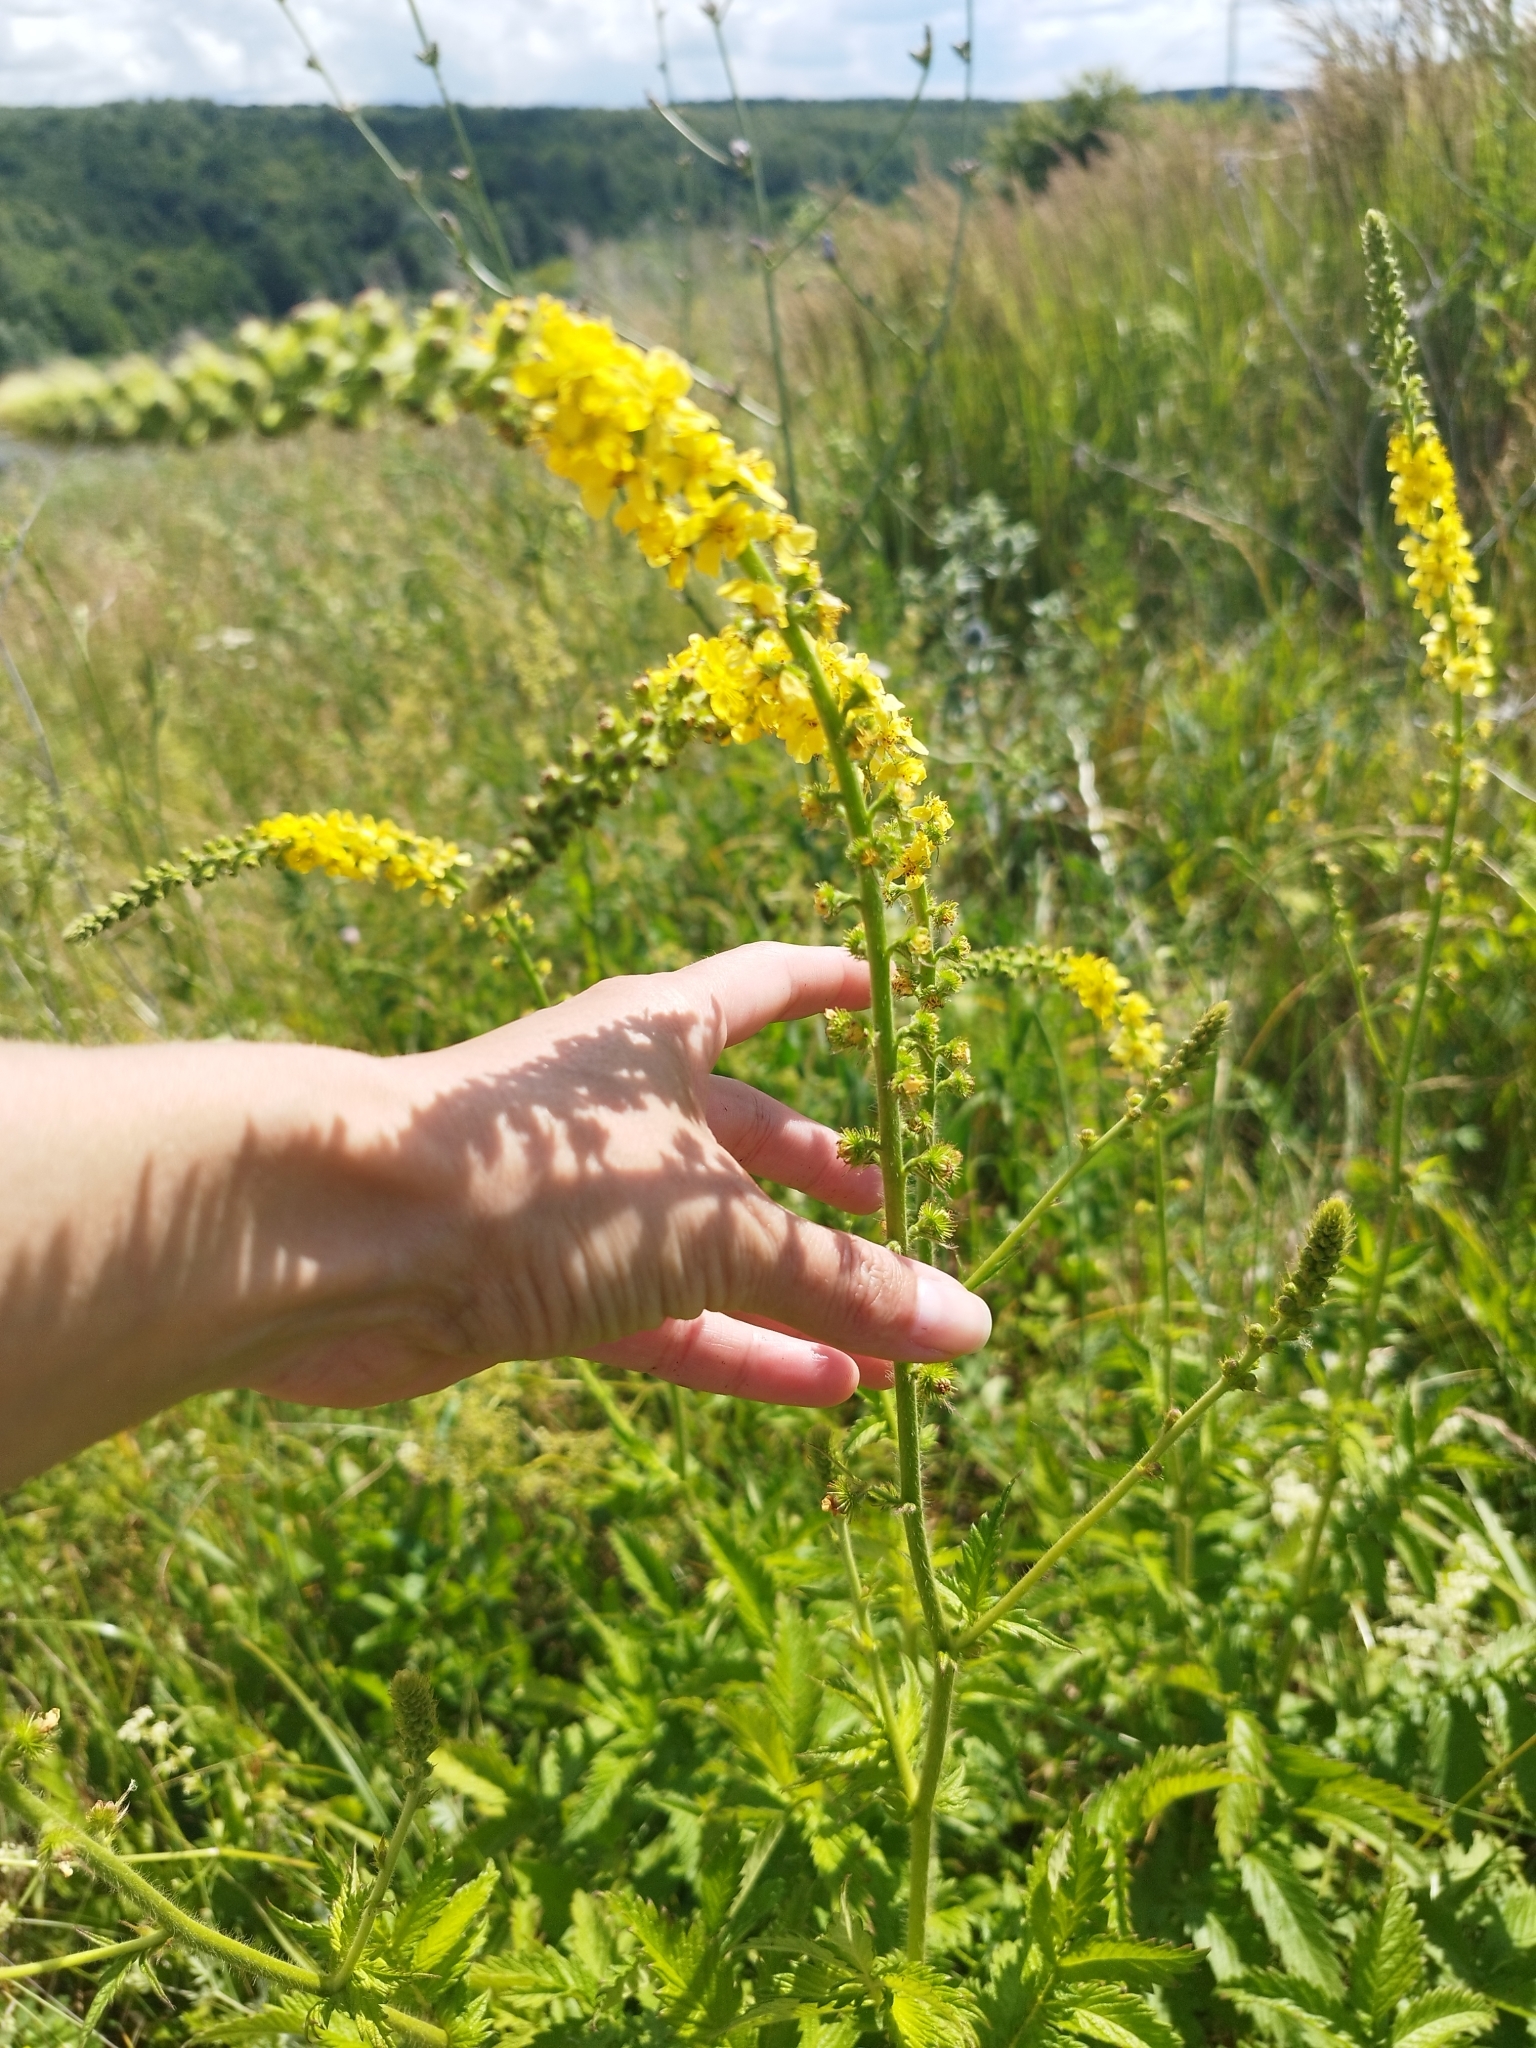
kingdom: Plantae
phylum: Tracheophyta
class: Magnoliopsida
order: Rosales
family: Rosaceae
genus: Agrimonia
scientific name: Agrimonia eupatoria
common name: Agrimony
